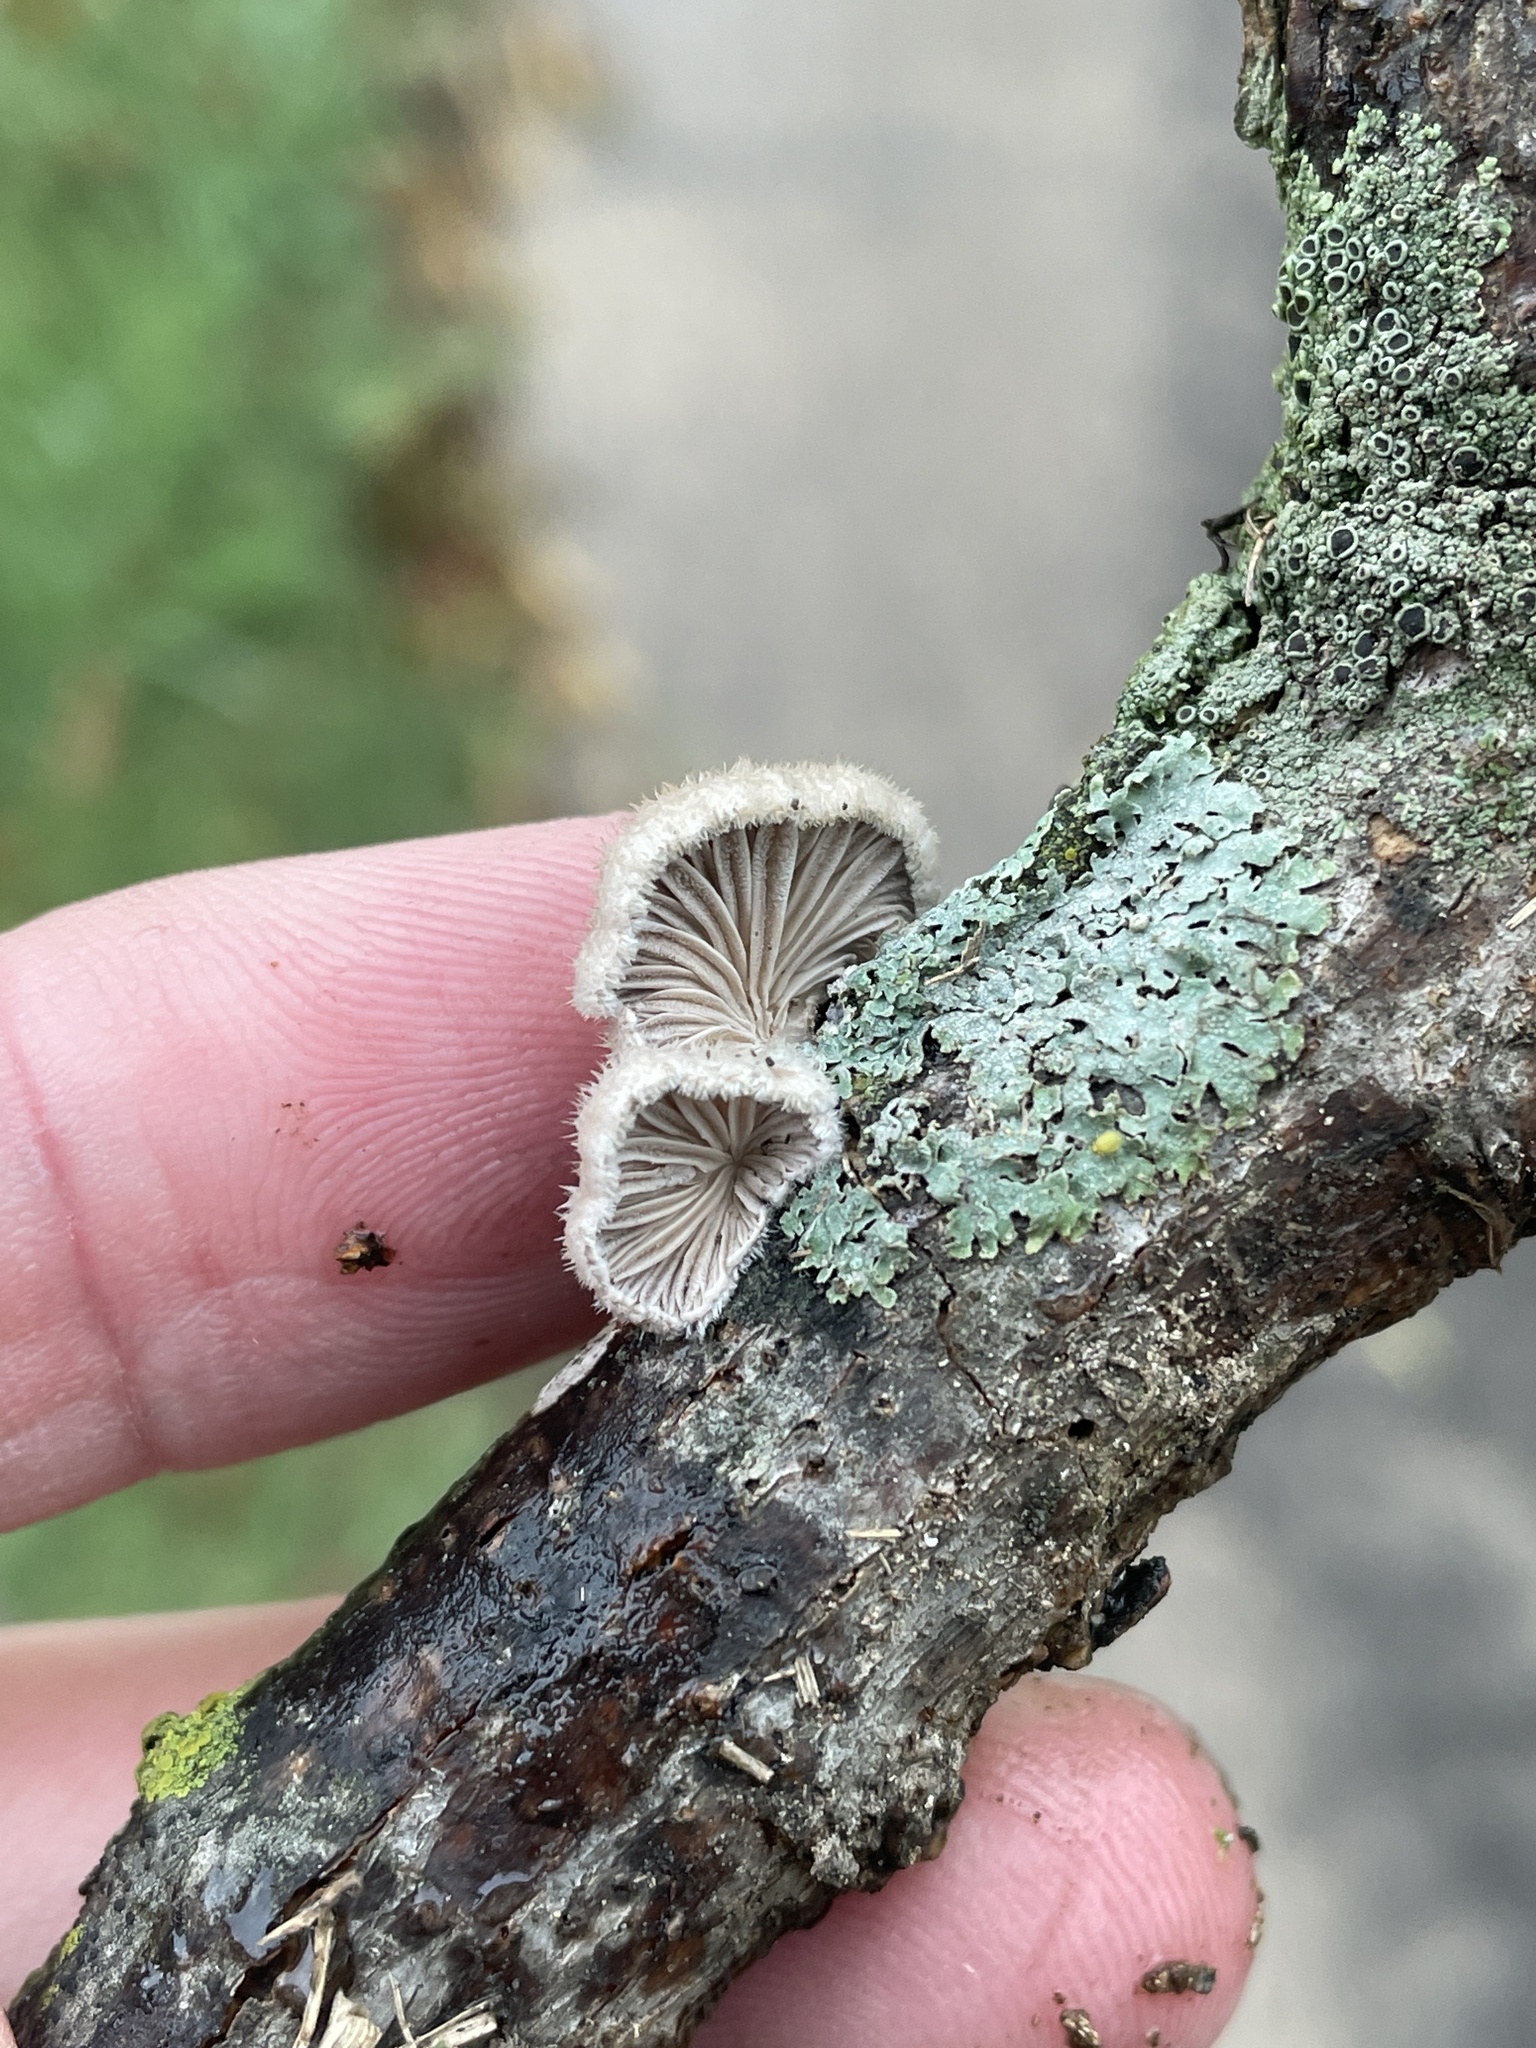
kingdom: Fungi
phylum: Basidiomycota
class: Agaricomycetes
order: Agaricales
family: Schizophyllaceae
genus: Schizophyllum
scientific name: Schizophyllum commune
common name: Common porecrust
